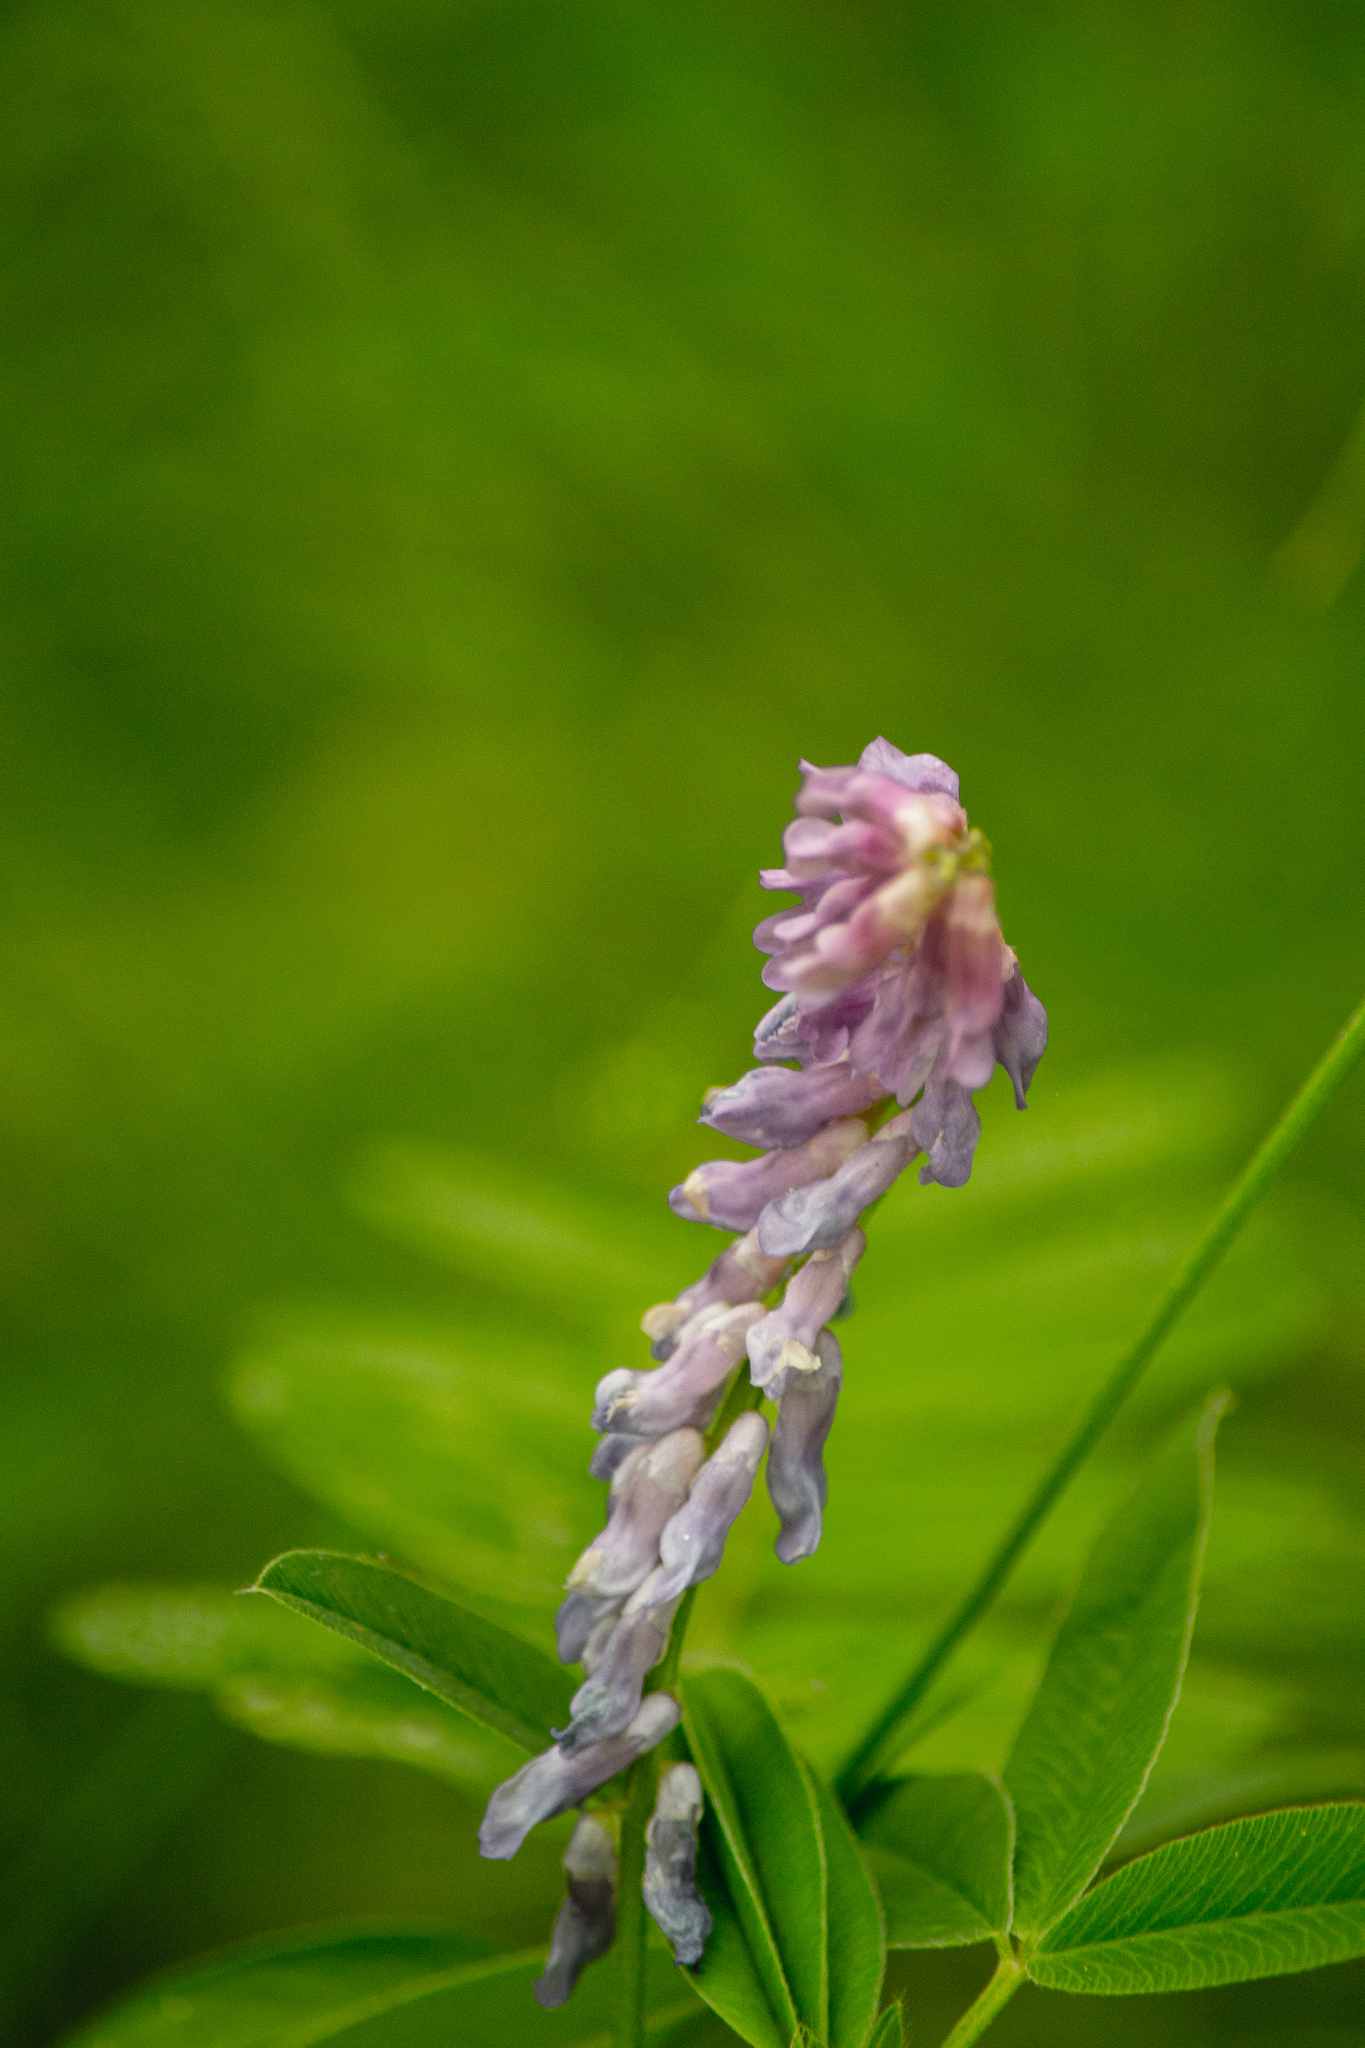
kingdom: Plantae
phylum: Tracheophyta
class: Magnoliopsida
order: Fabales
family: Fabaceae
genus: Vicia
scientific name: Vicia cracca
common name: Bird vetch
